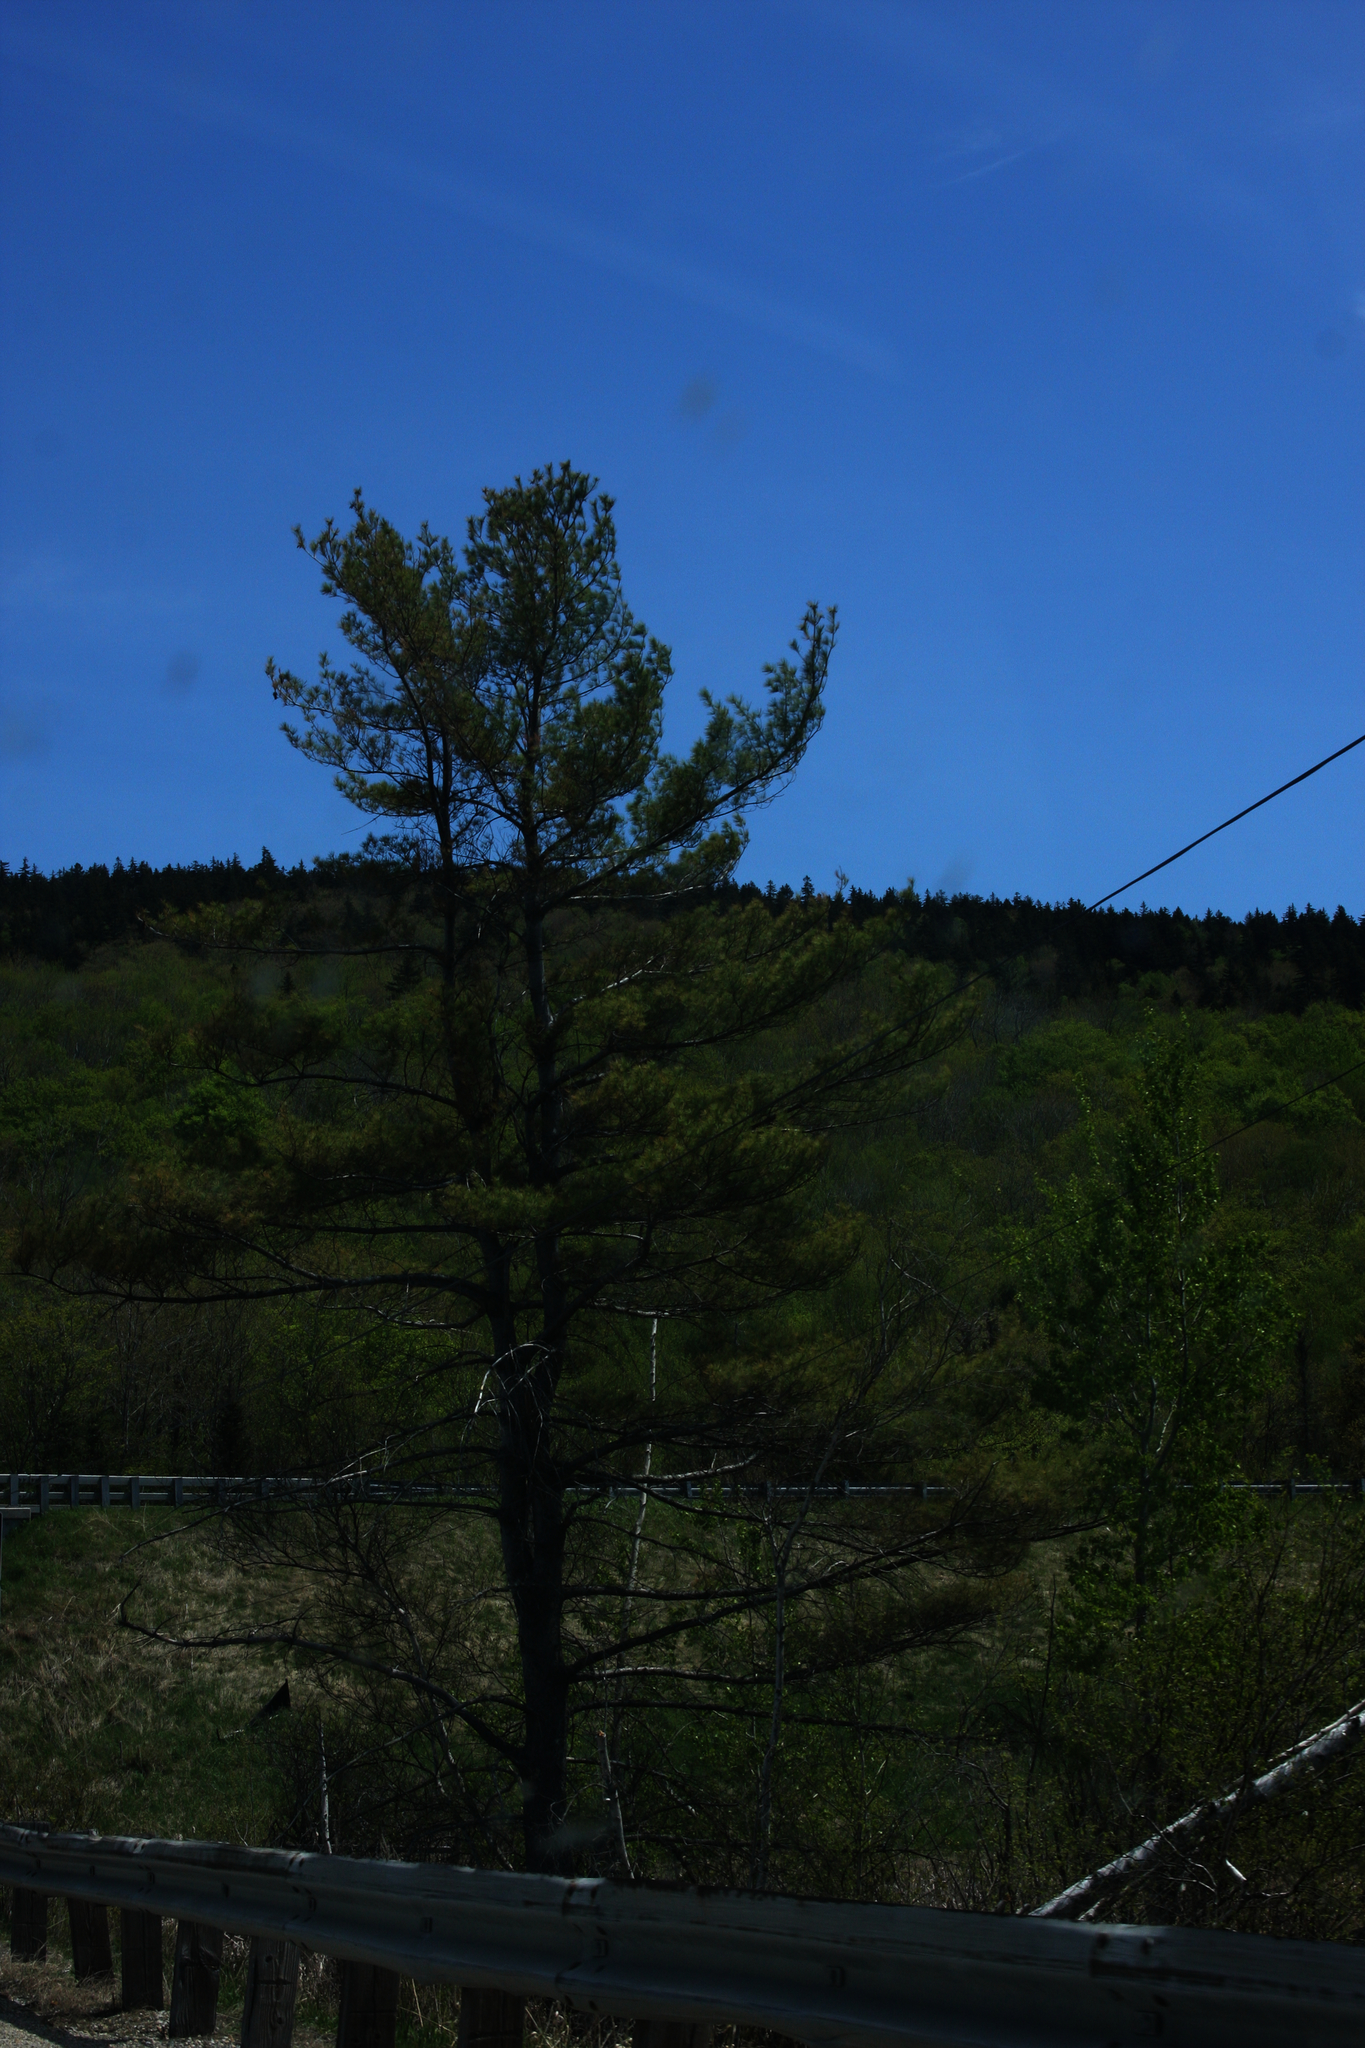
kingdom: Plantae
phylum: Tracheophyta
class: Pinopsida
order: Pinales
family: Pinaceae
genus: Pinus
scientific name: Pinus strobus
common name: Weymouth pine
